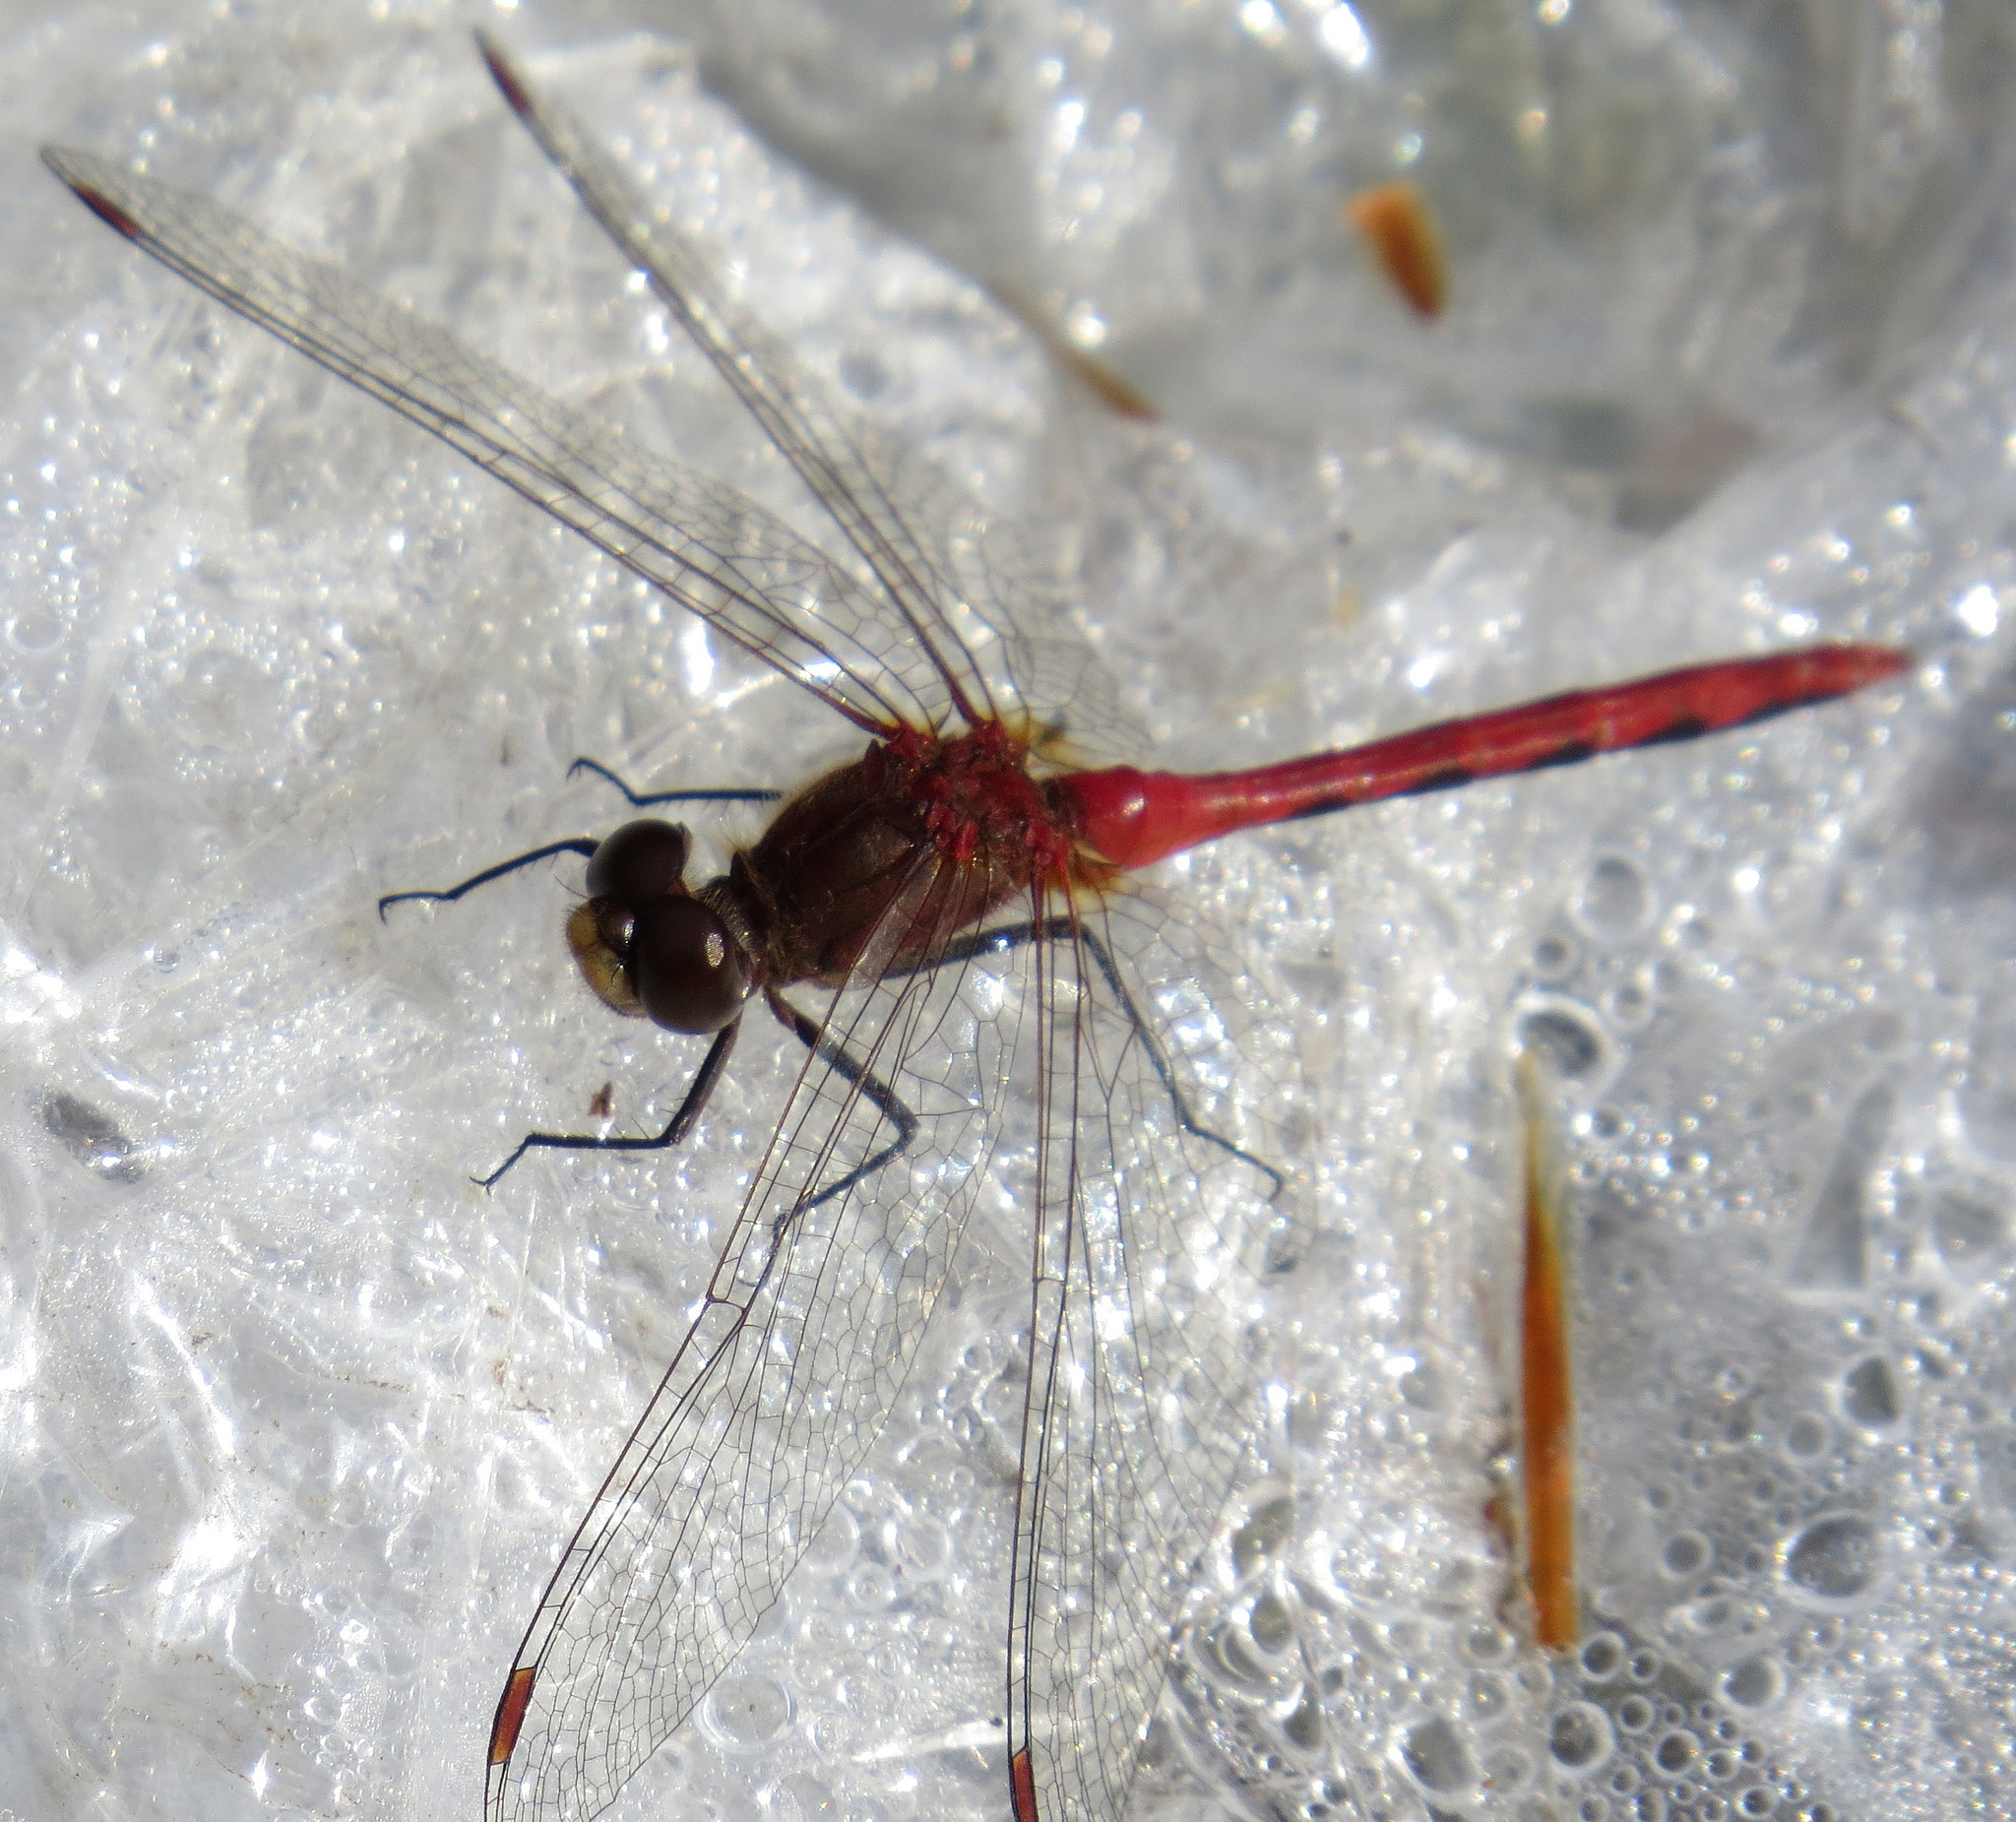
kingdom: Animalia
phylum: Arthropoda
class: Insecta
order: Odonata
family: Libellulidae
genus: Sympetrum
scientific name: Sympetrum internum
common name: Cherry-faced meadowhawk
